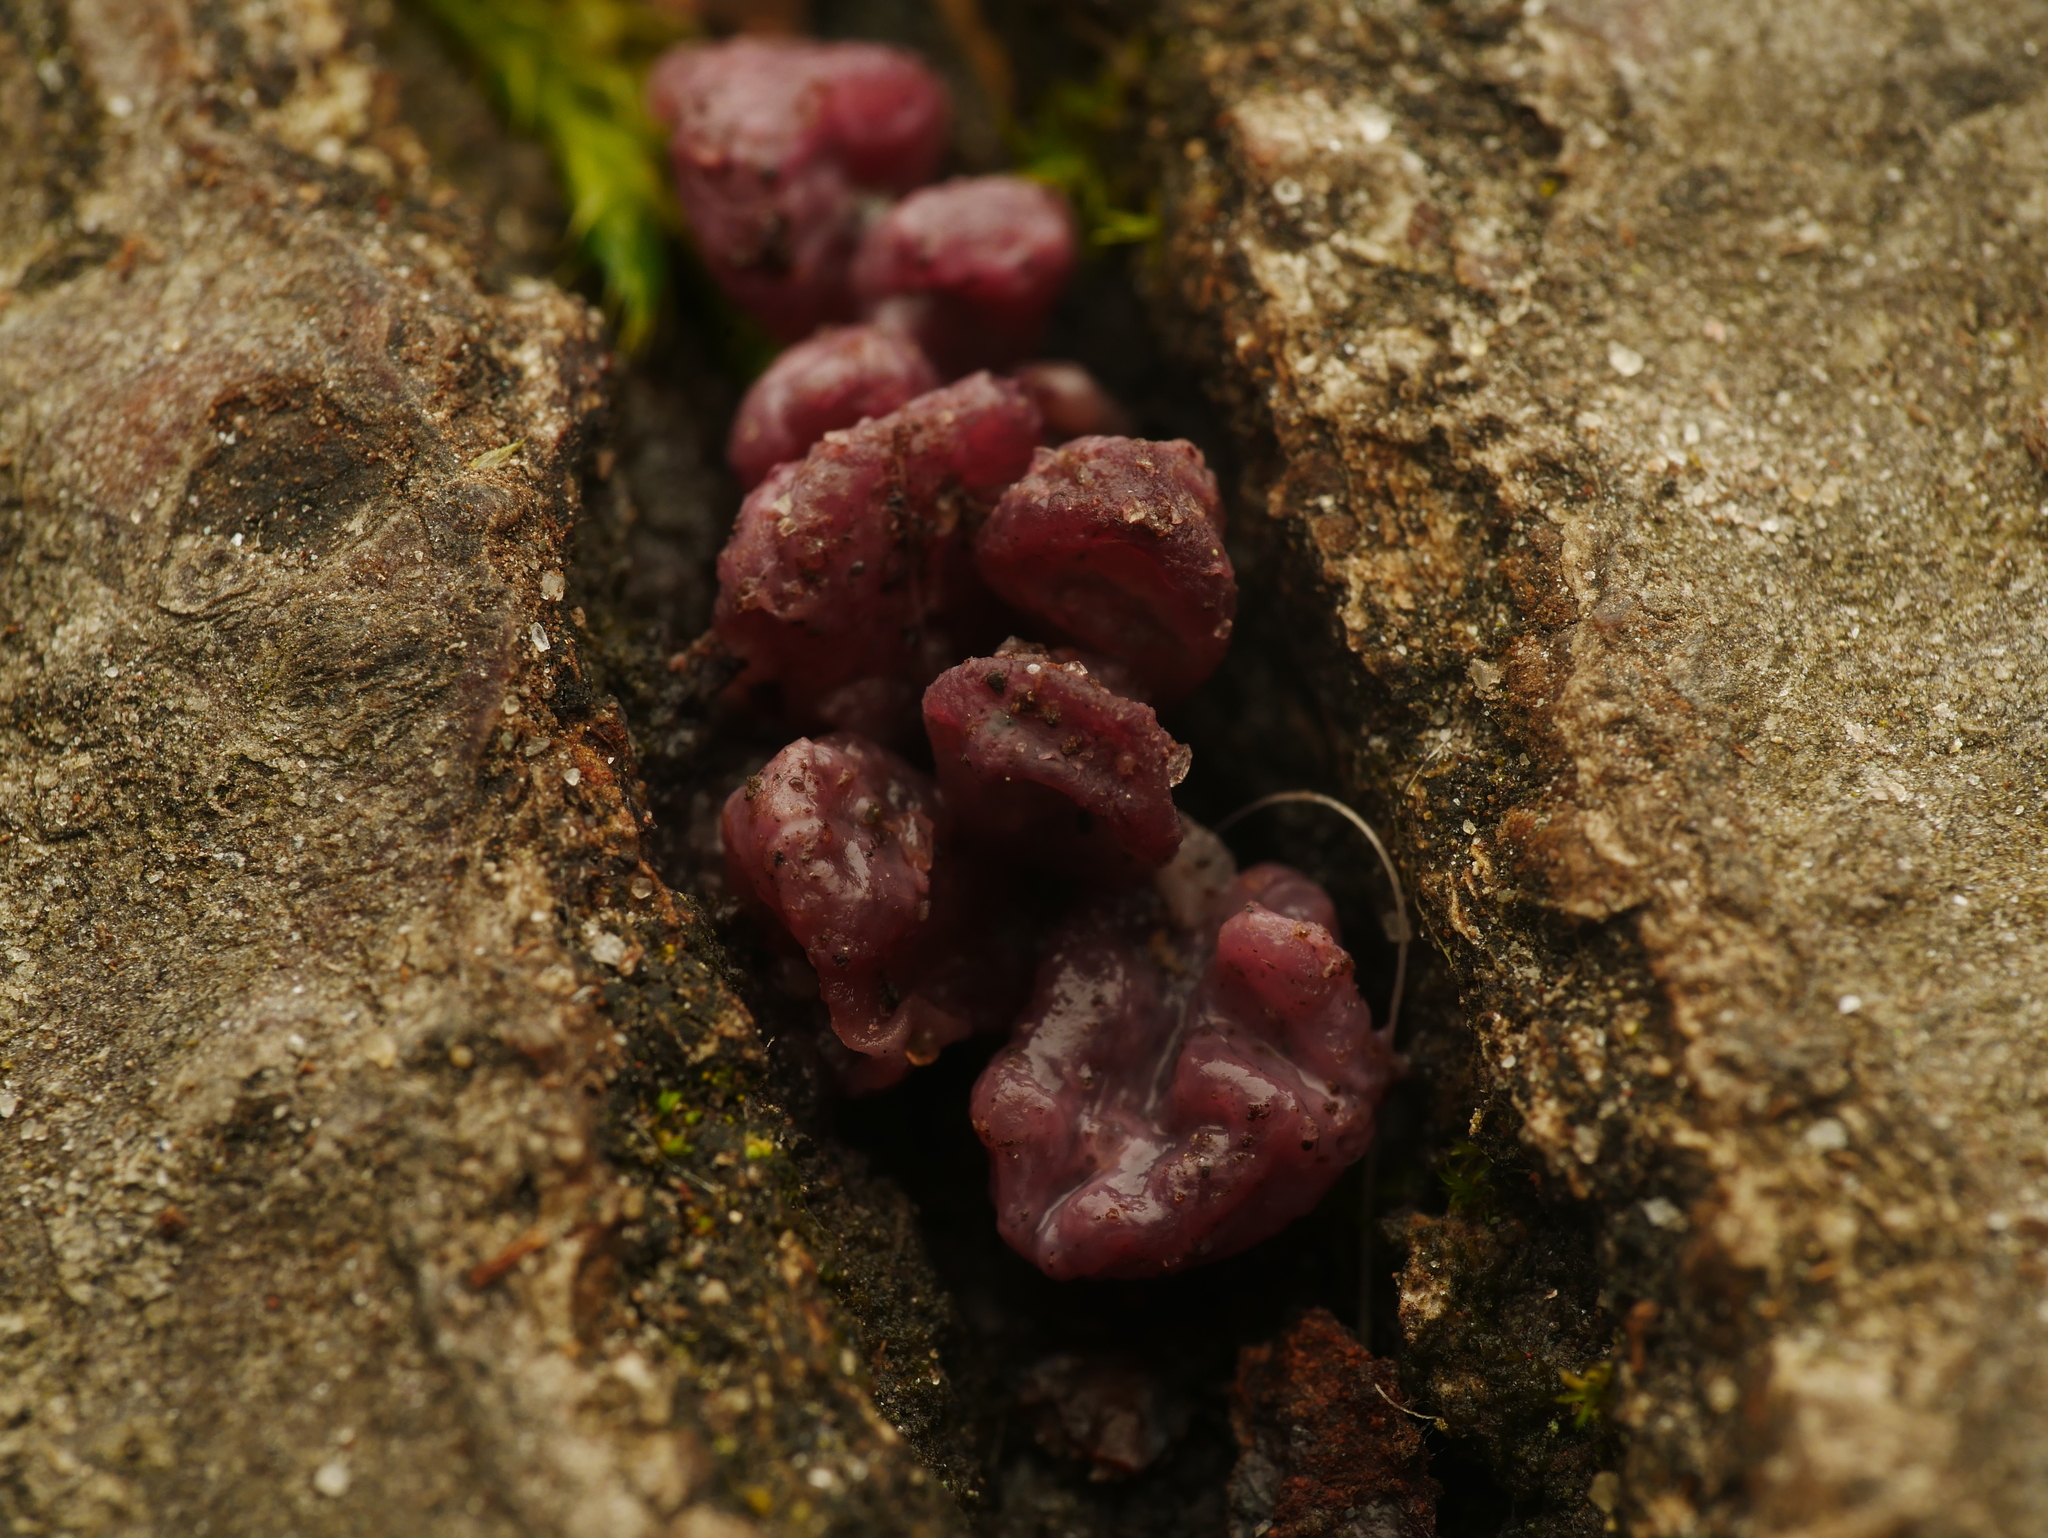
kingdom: Fungi
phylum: Ascomycota
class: Leotiomycetes
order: Helotiales
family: Gelatinodiscaceae
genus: Ascocoryne
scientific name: Ascocoryne sarcoides
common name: Purple jellydisc
